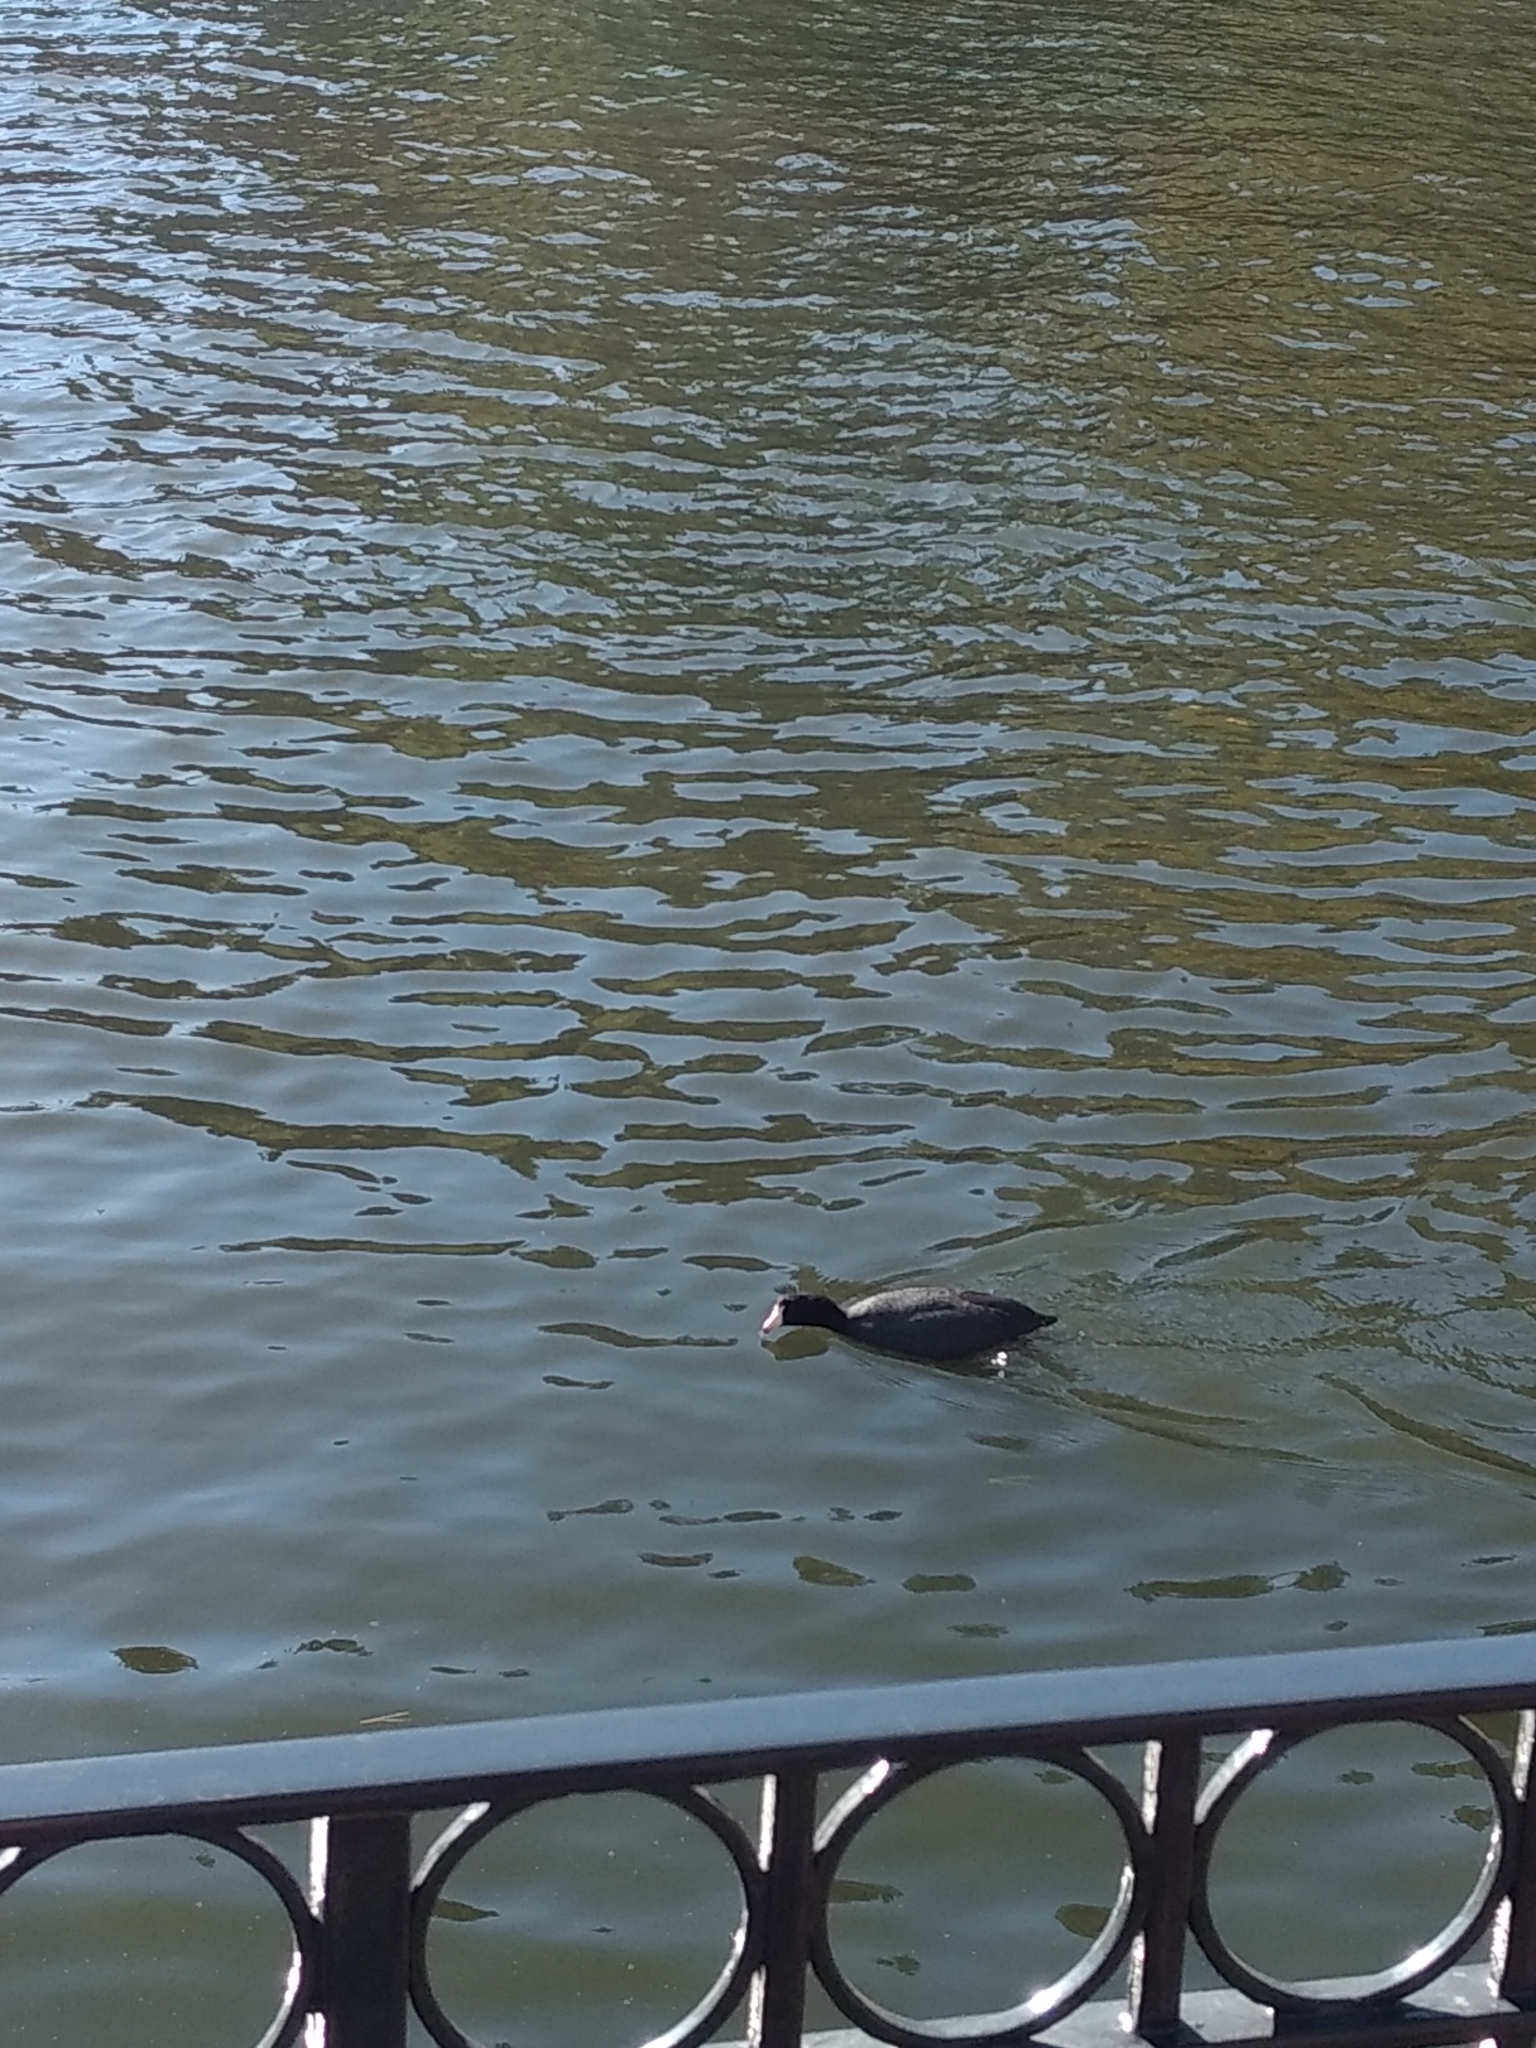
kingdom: Animalia
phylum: Chordata
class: Aves
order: Gruiformes
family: Rallidae
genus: Fulica
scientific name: Fulica americana
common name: American coot
